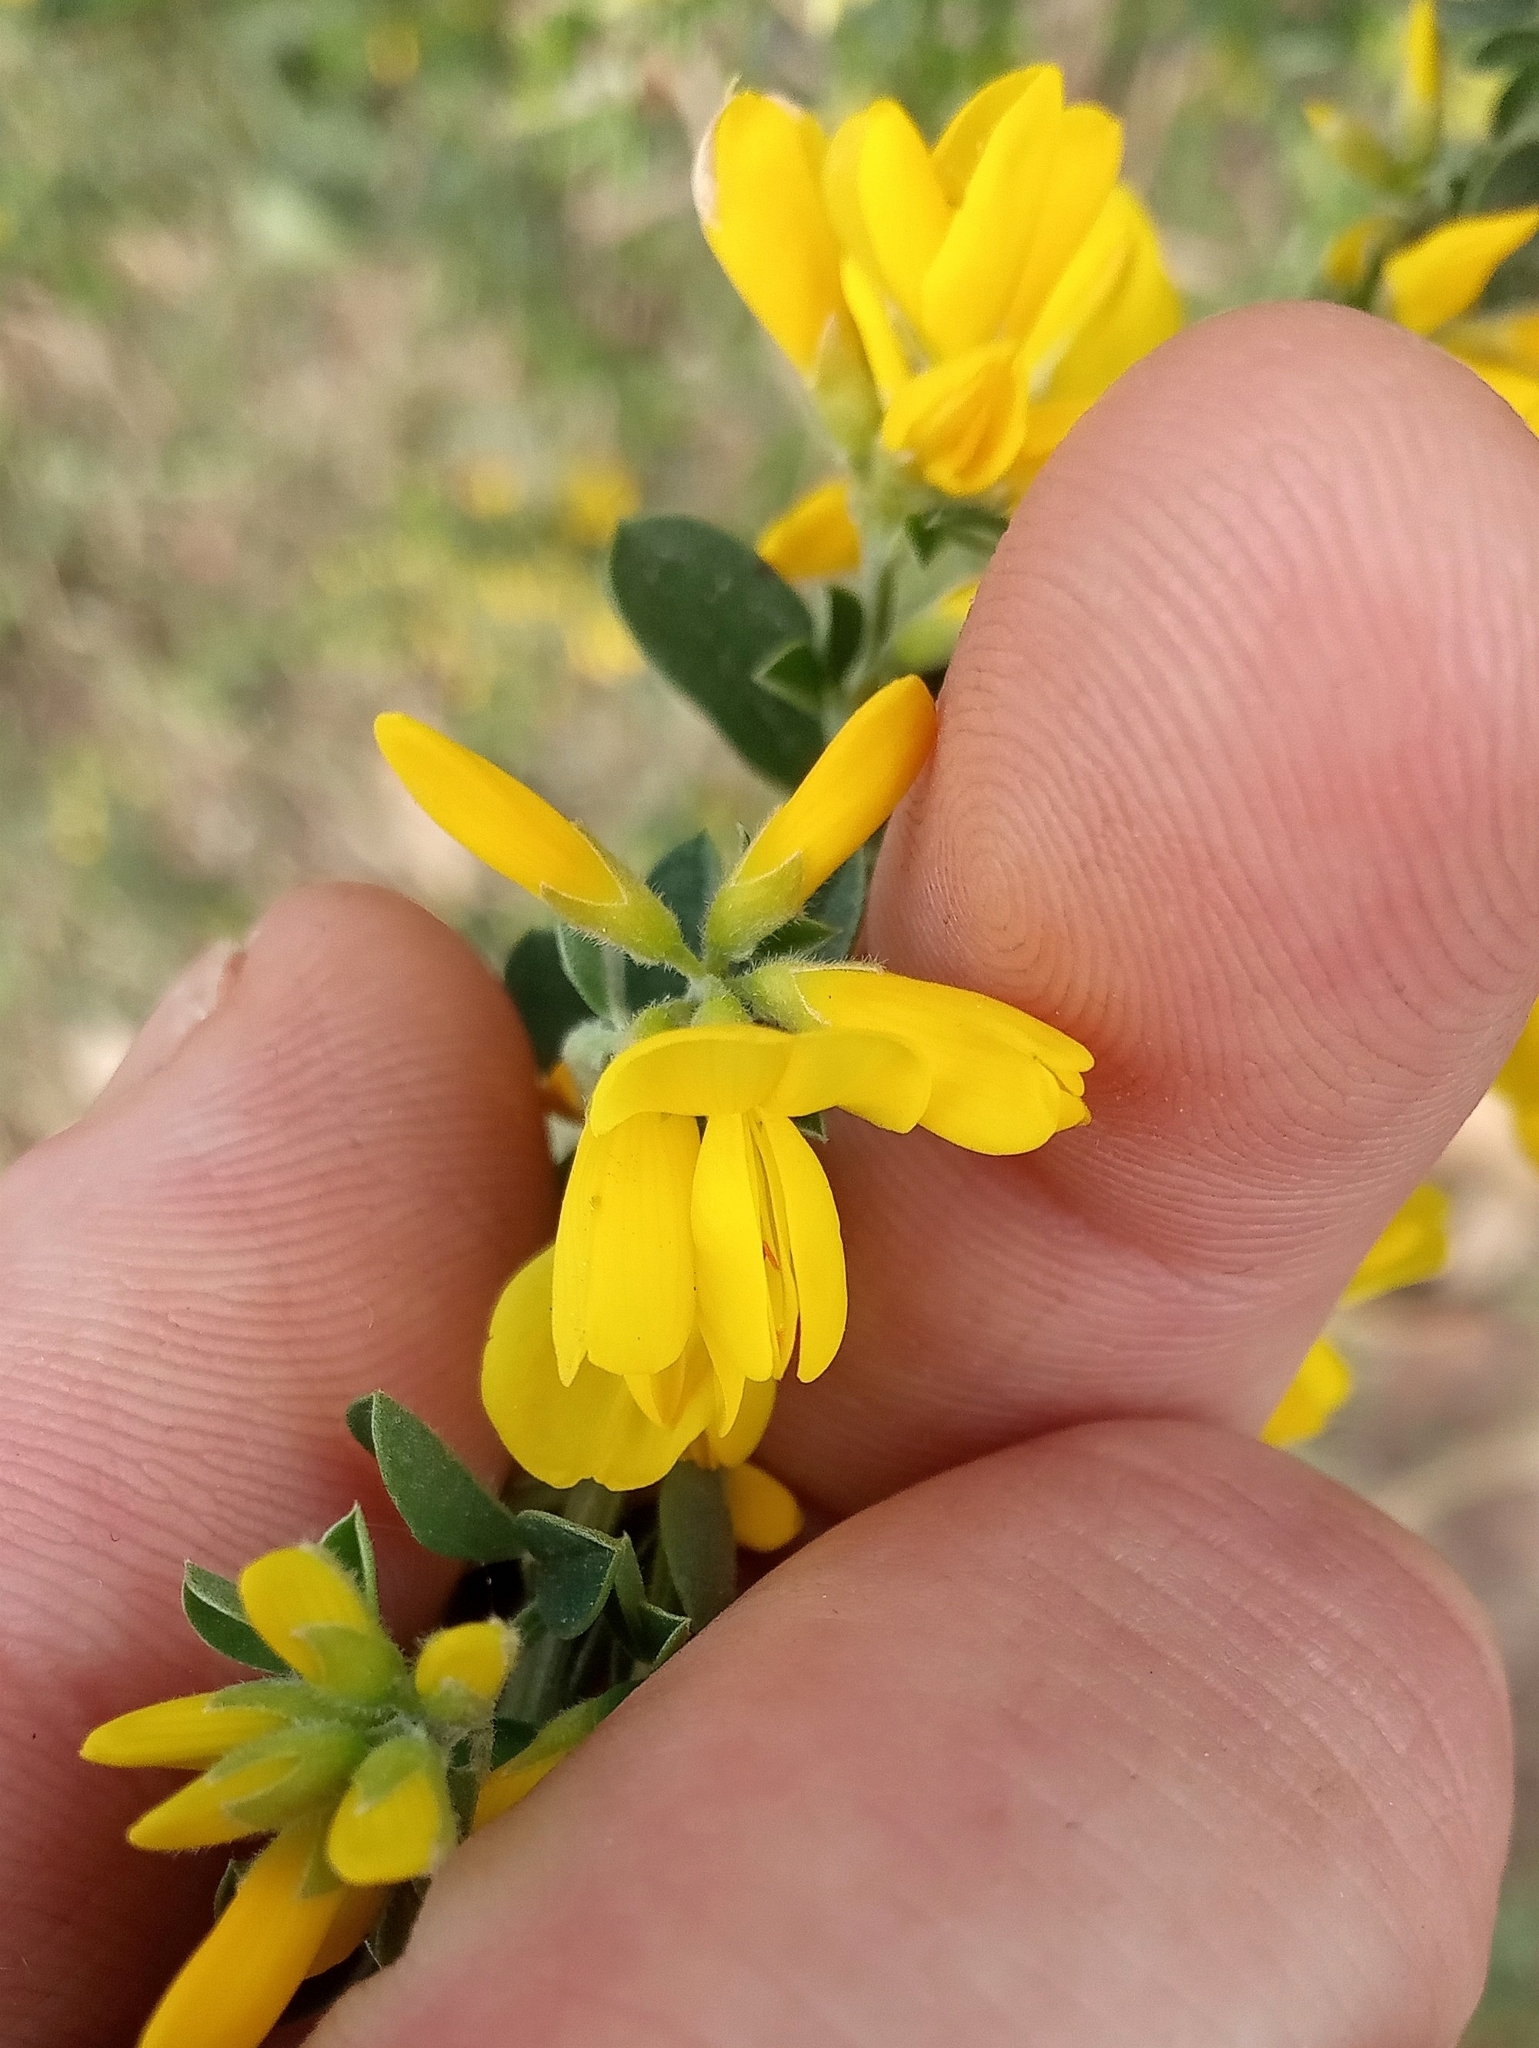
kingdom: Plantae
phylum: Tracheophyta
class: Magnoliopsida
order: Fabales
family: Fabaceae
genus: Genista
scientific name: Genista monspessulana
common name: Montpellier broom
